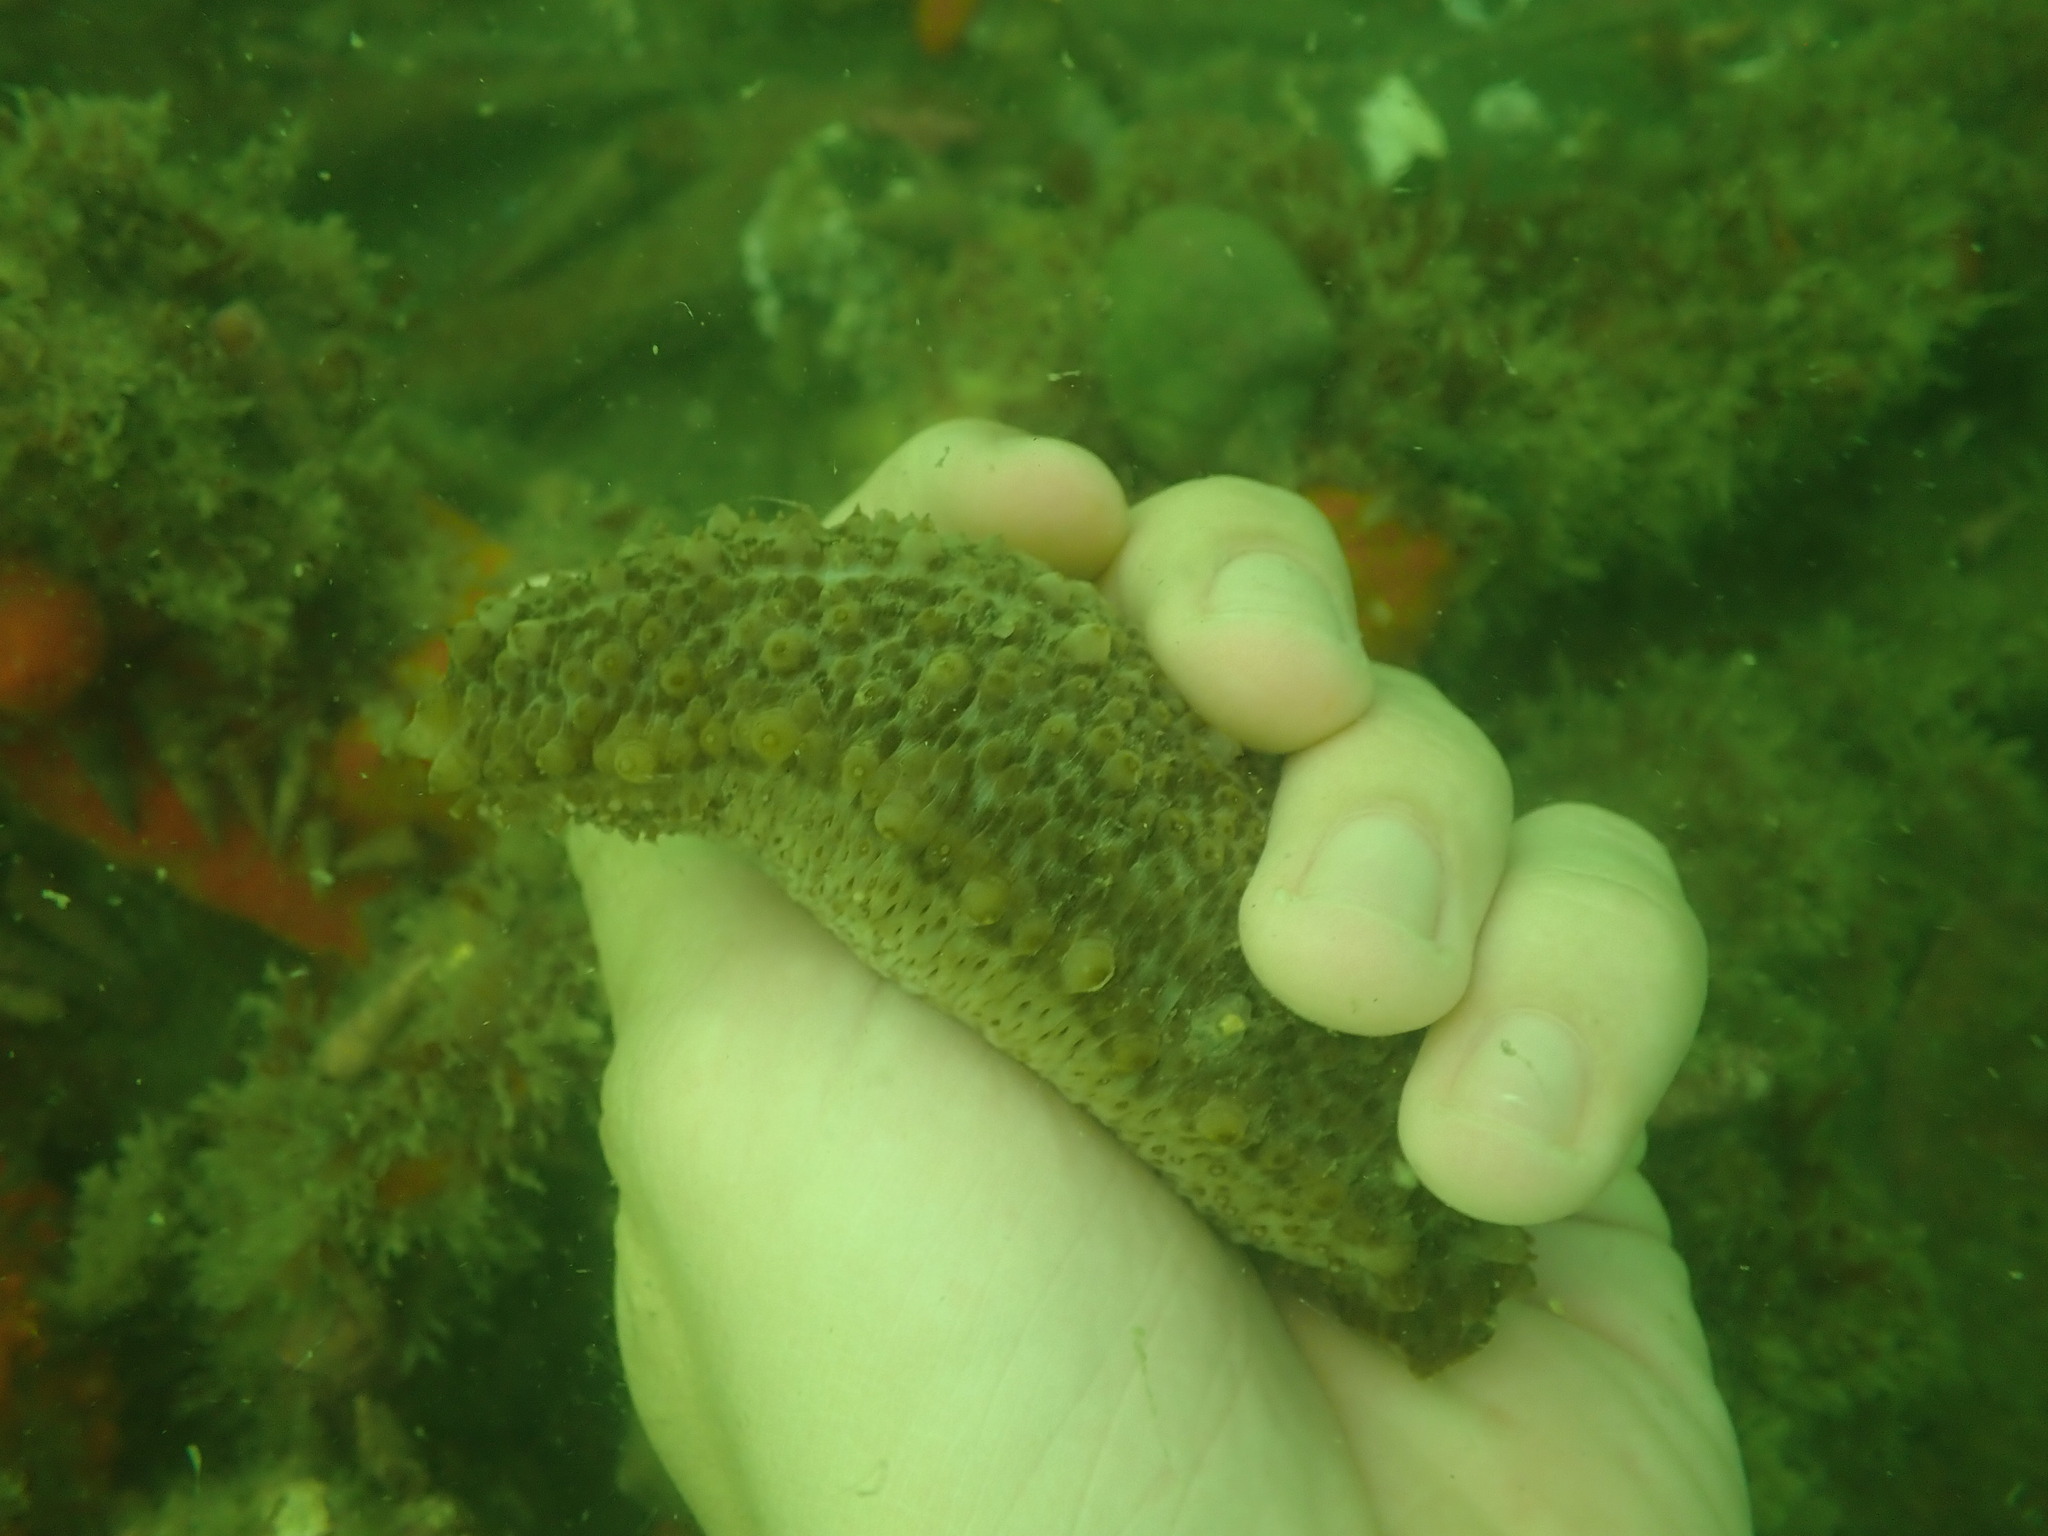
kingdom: Animalia
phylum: Echinodermata
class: Holothuroidea
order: Synallactida
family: Stichopodidae
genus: Australostichopus
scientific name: Australostichopus mollis
